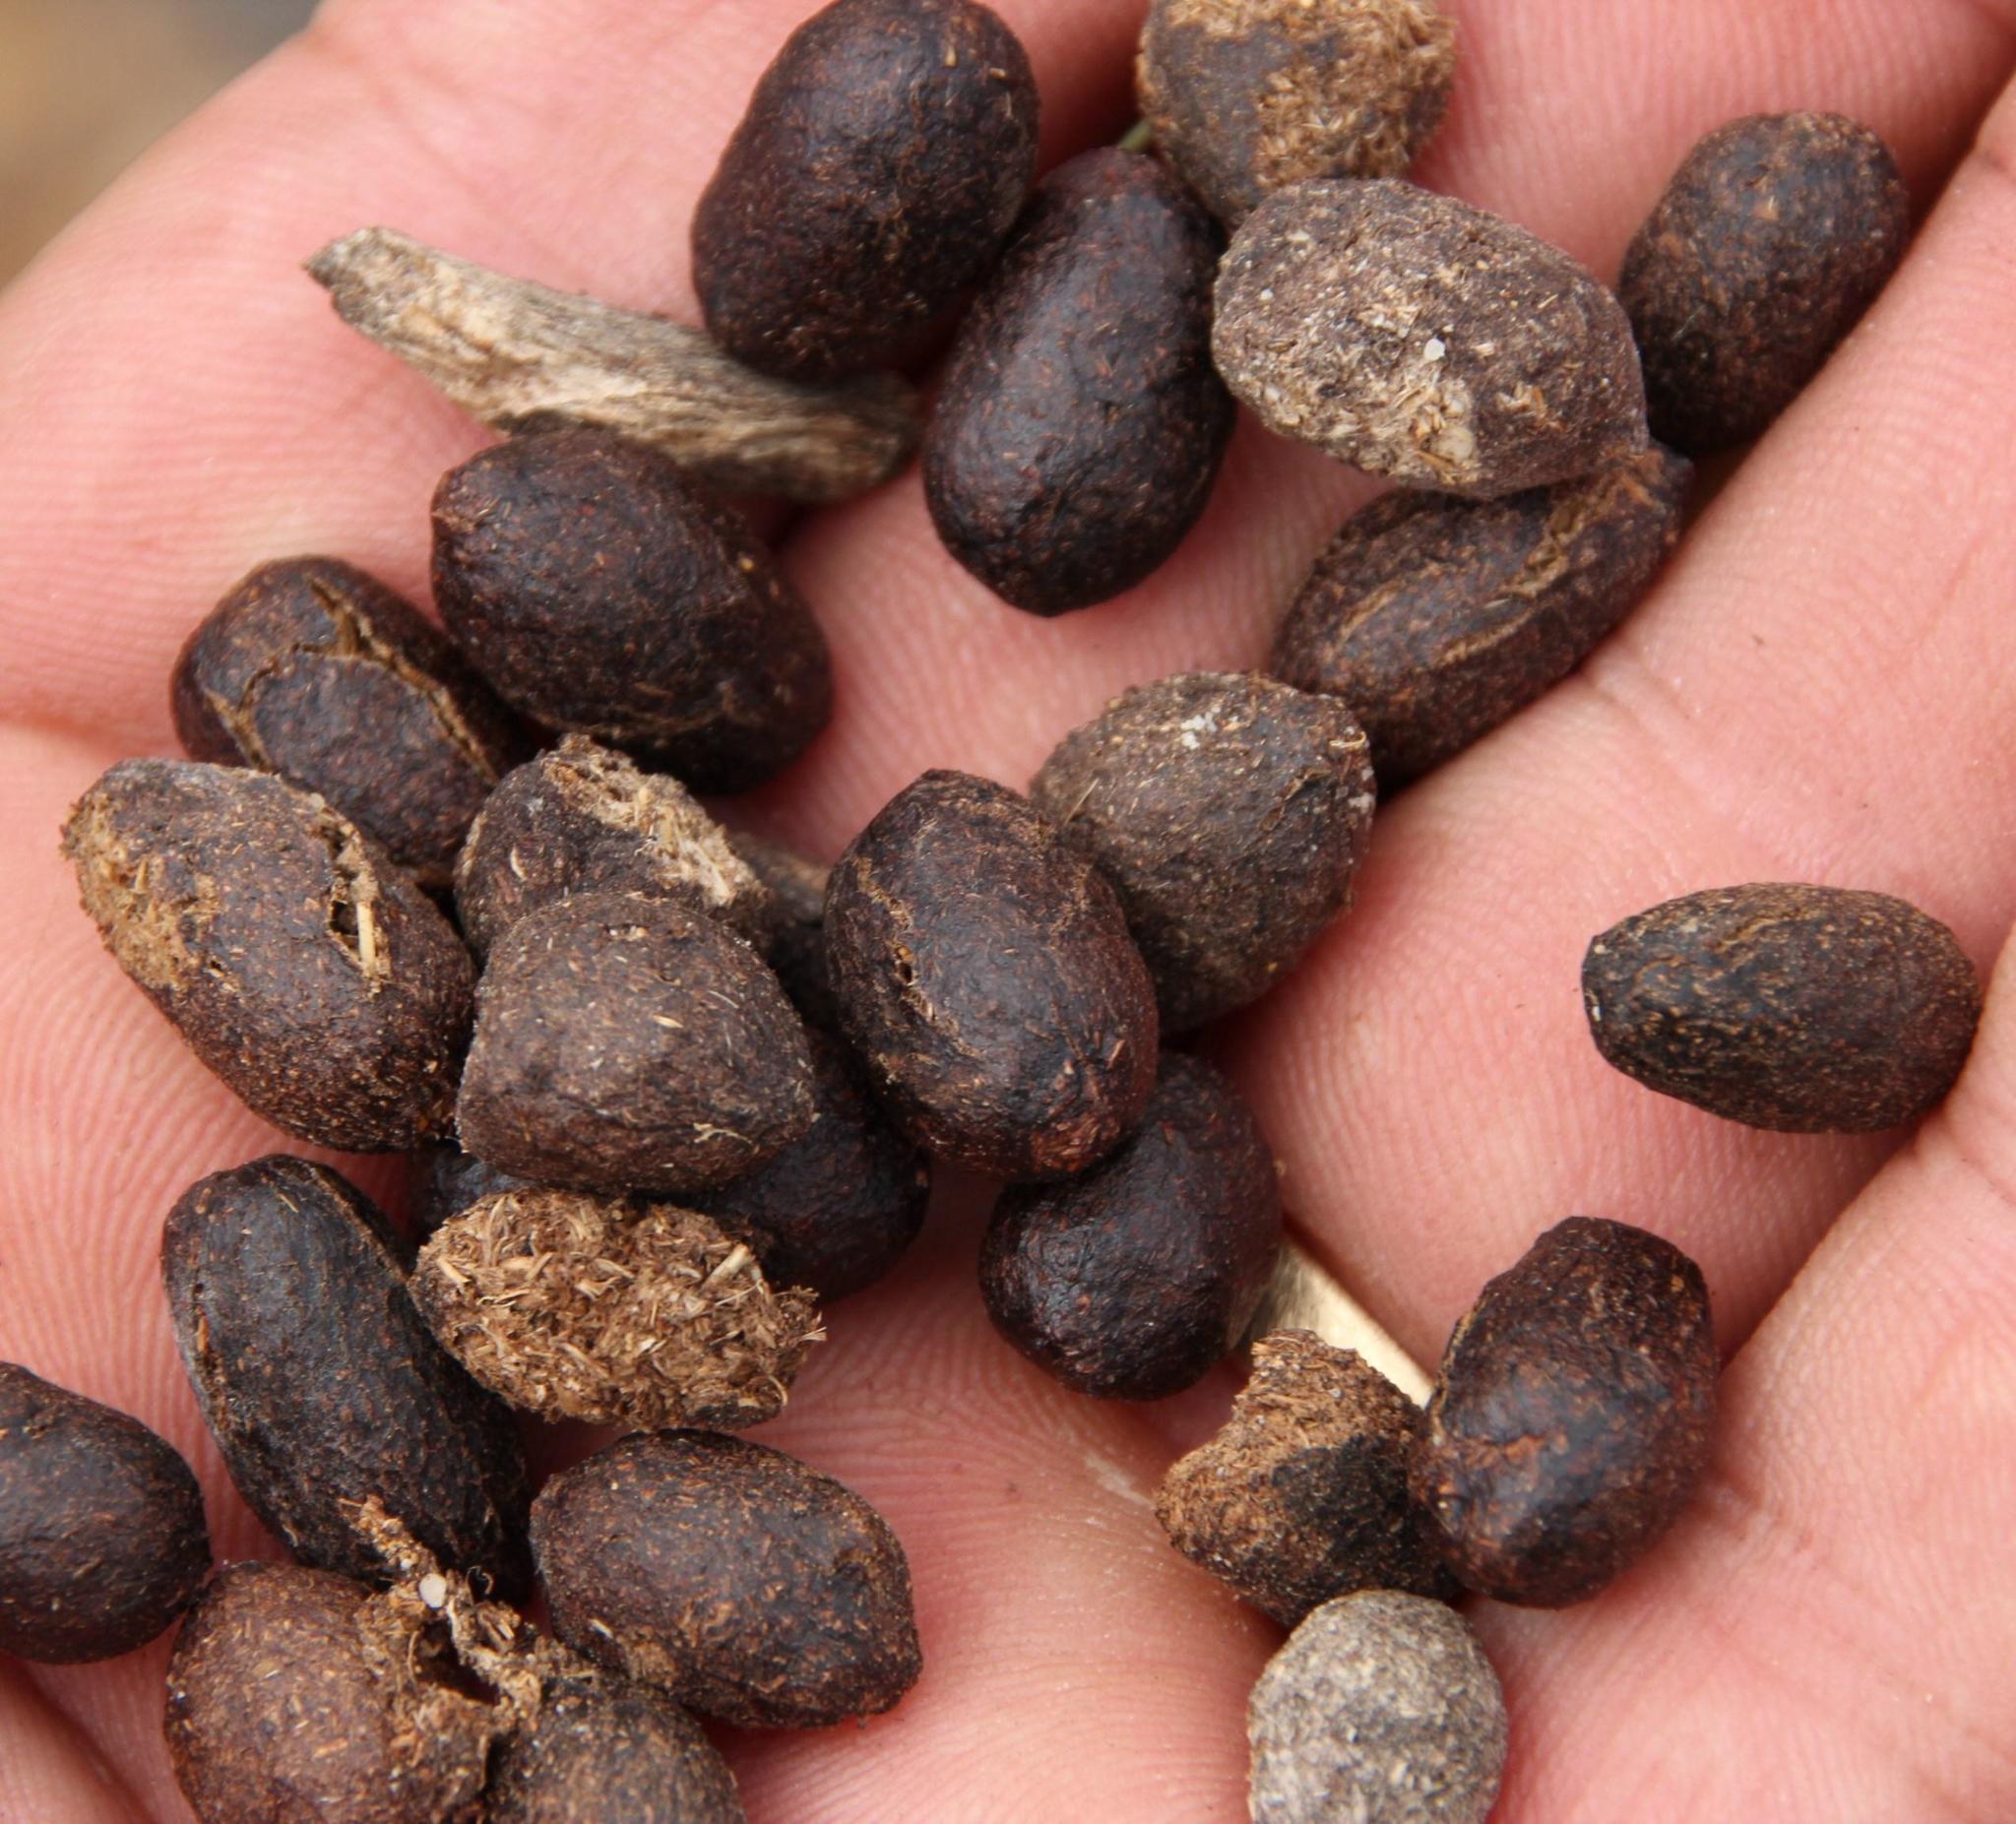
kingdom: Animalia
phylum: Chordata
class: Mammalia
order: Artiodactyla
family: Bovidae
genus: Oreotragus
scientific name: Oreotragus oreotragus
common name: Klipspringer
